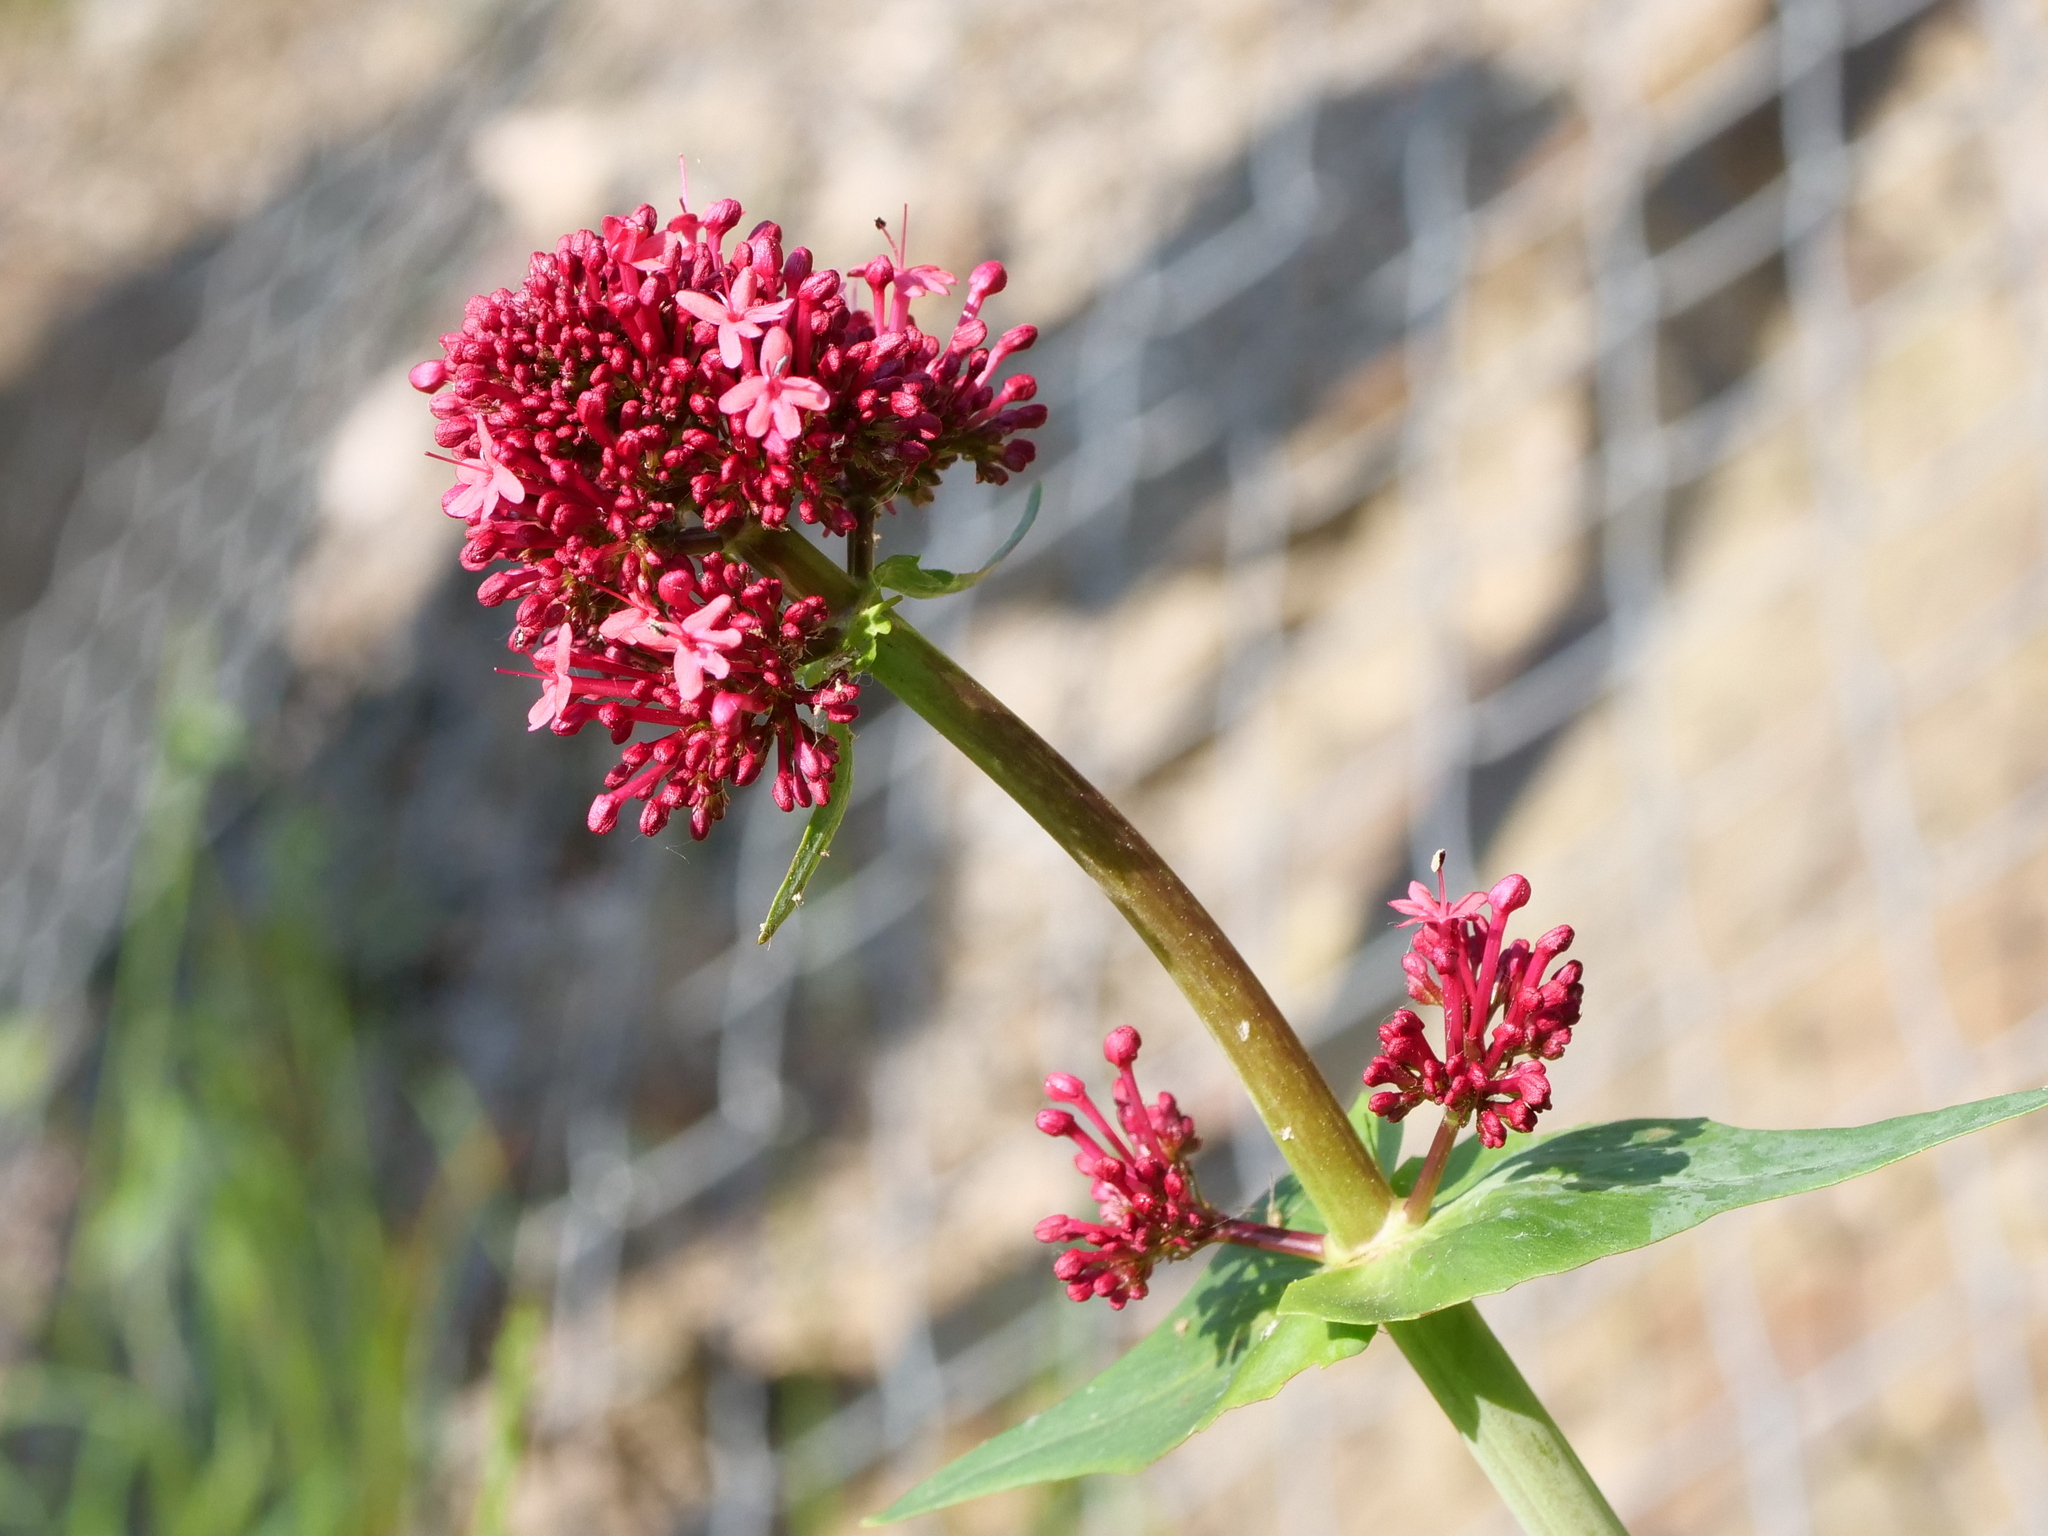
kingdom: Plantae
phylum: Tracheophyta
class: Magnoliopsida
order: Dipsacales
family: Caprifoliaceae
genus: Centranthus
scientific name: Centranthus ruber
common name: Red valerian
